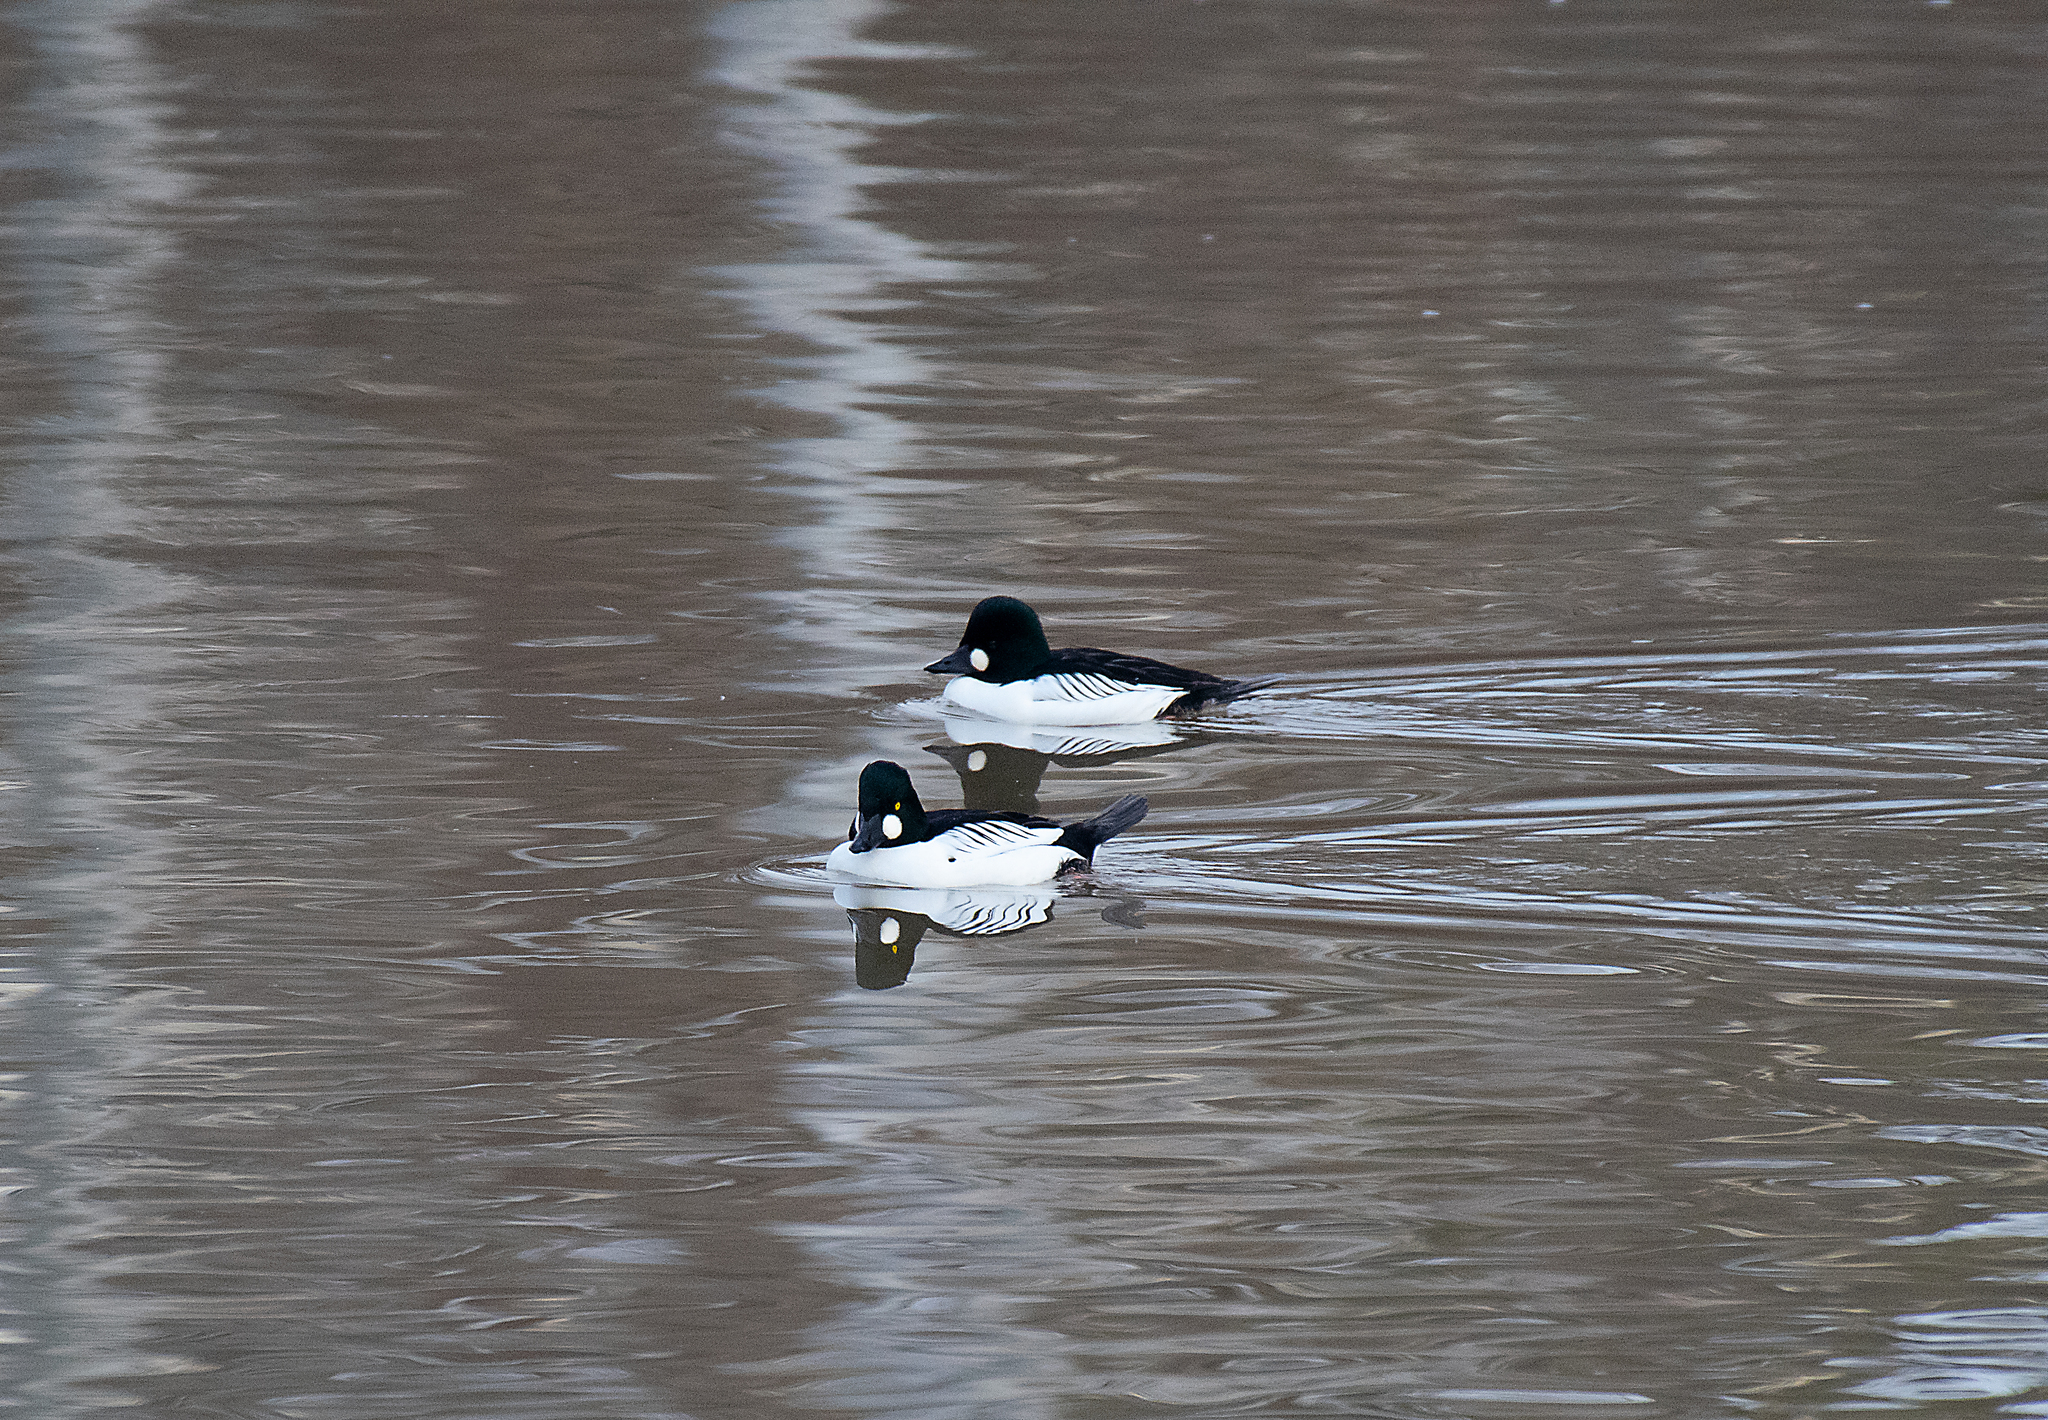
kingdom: Animalia
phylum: Chordata
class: Aves
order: Anseriformes
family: Anatidae
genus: Bucephala
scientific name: Bucephala clangula
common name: Common goldeneye
